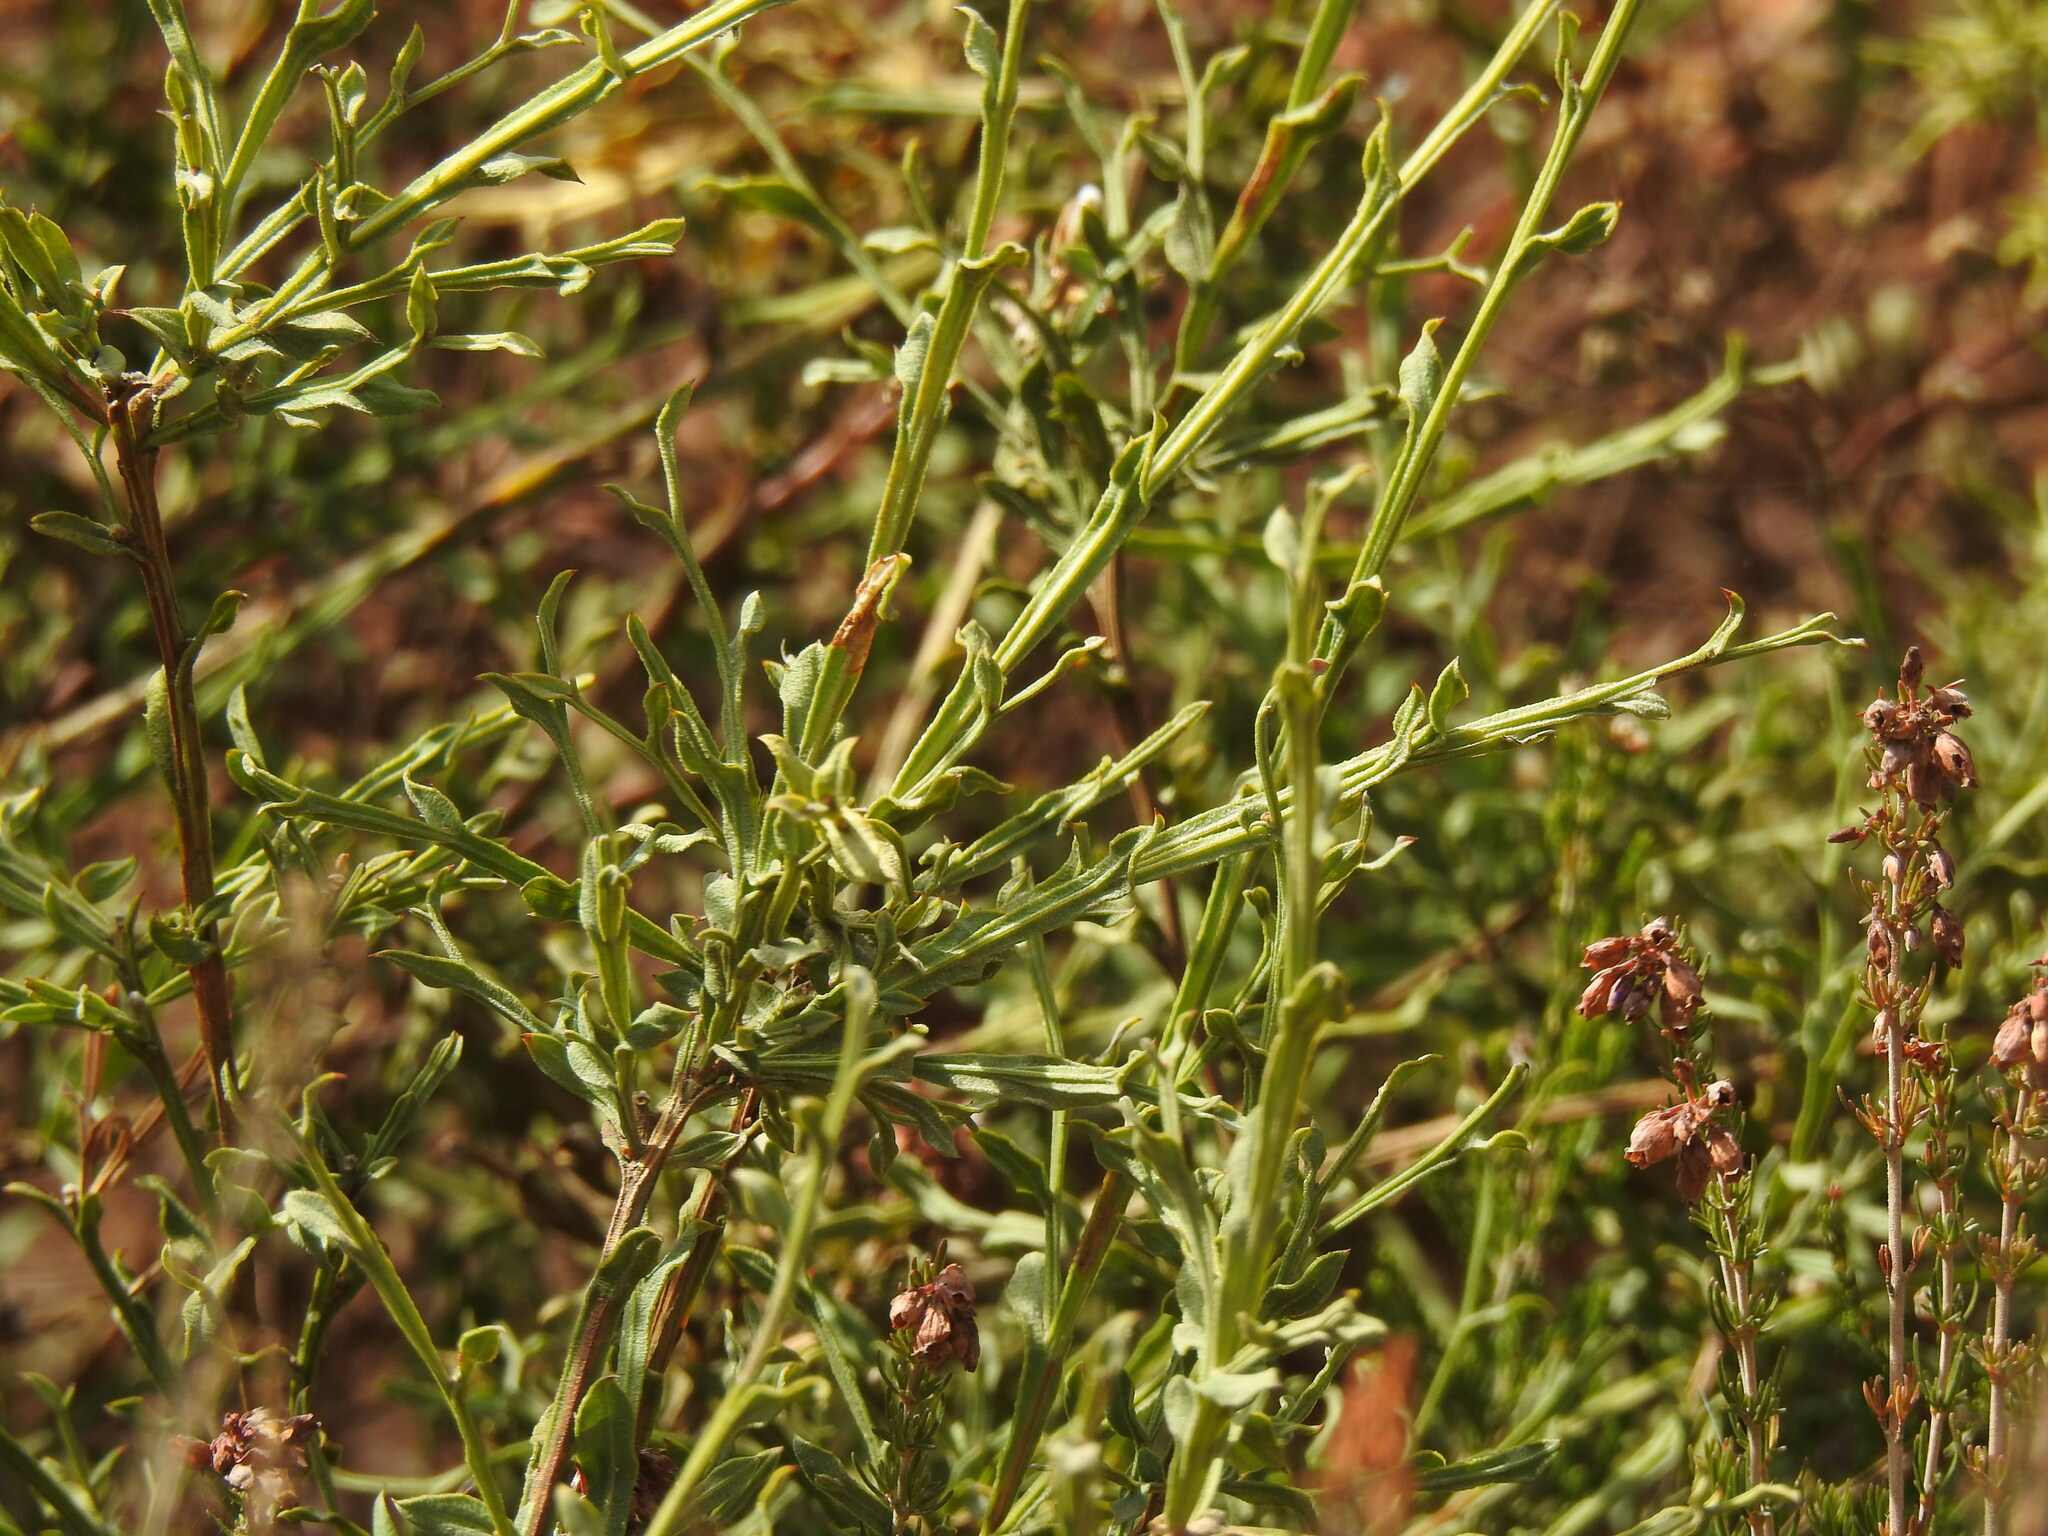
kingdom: Plantae
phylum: Tracheophyta
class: Magnoliopsida
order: Fabales
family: Fabaceae
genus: Genista
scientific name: Genista tridentata
